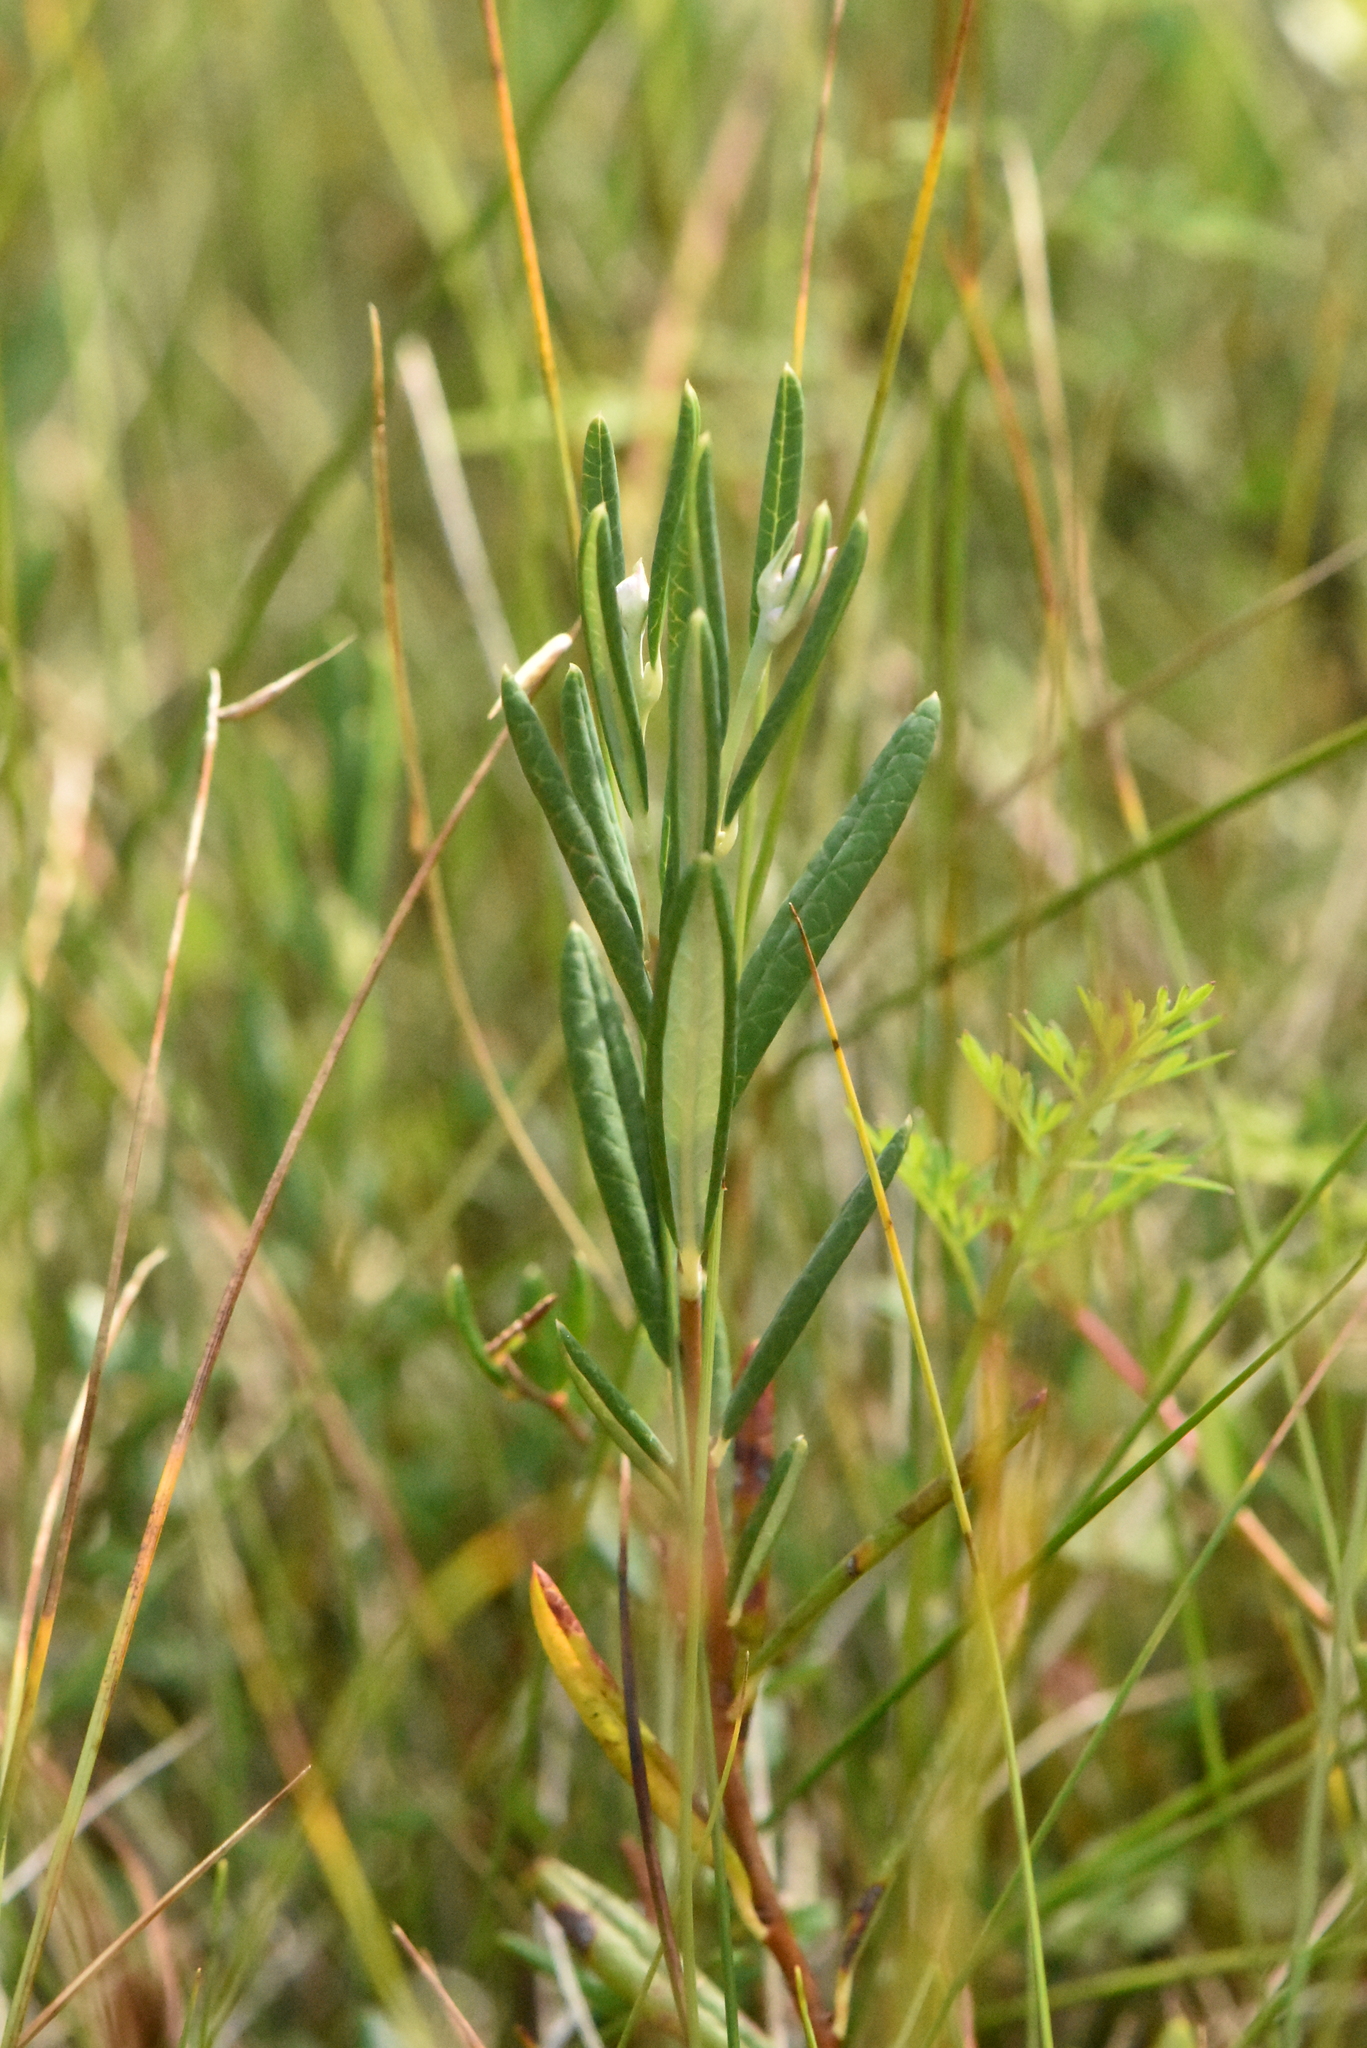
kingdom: Plantae
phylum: Tracheophyta
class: Magnoliopsida
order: Ericales
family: Ericaceae
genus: Andromeda
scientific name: Andromeda polifolia
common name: Bog-rosemary
